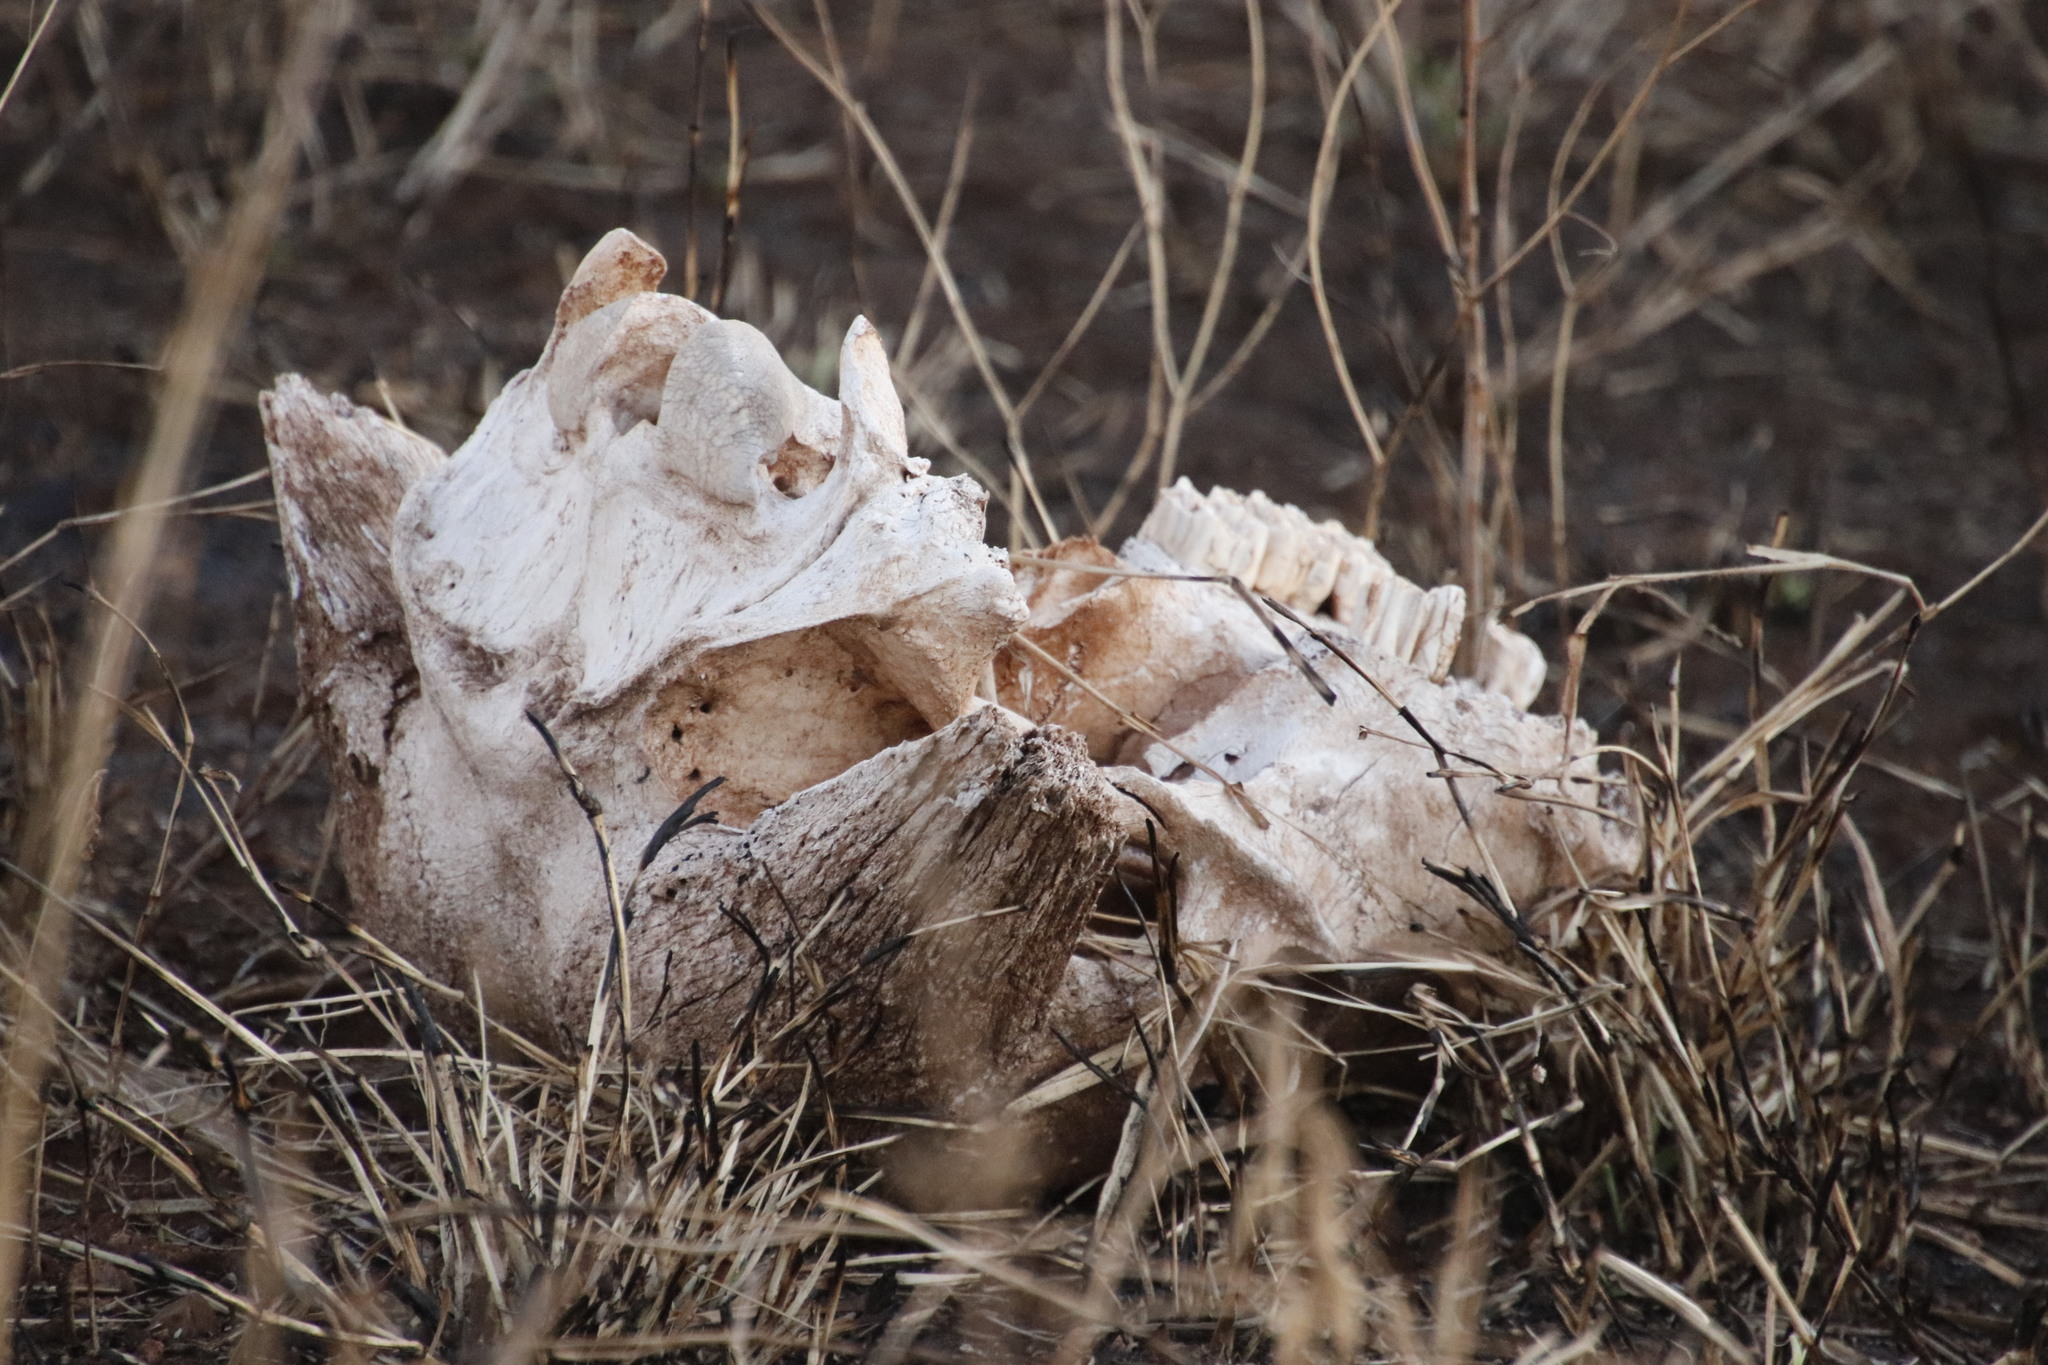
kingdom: Animalia
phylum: Chordata
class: Mammalia
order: Artiodactyla
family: Bovidae
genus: Syncerus
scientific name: Syncerus caffer
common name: African buffalo
